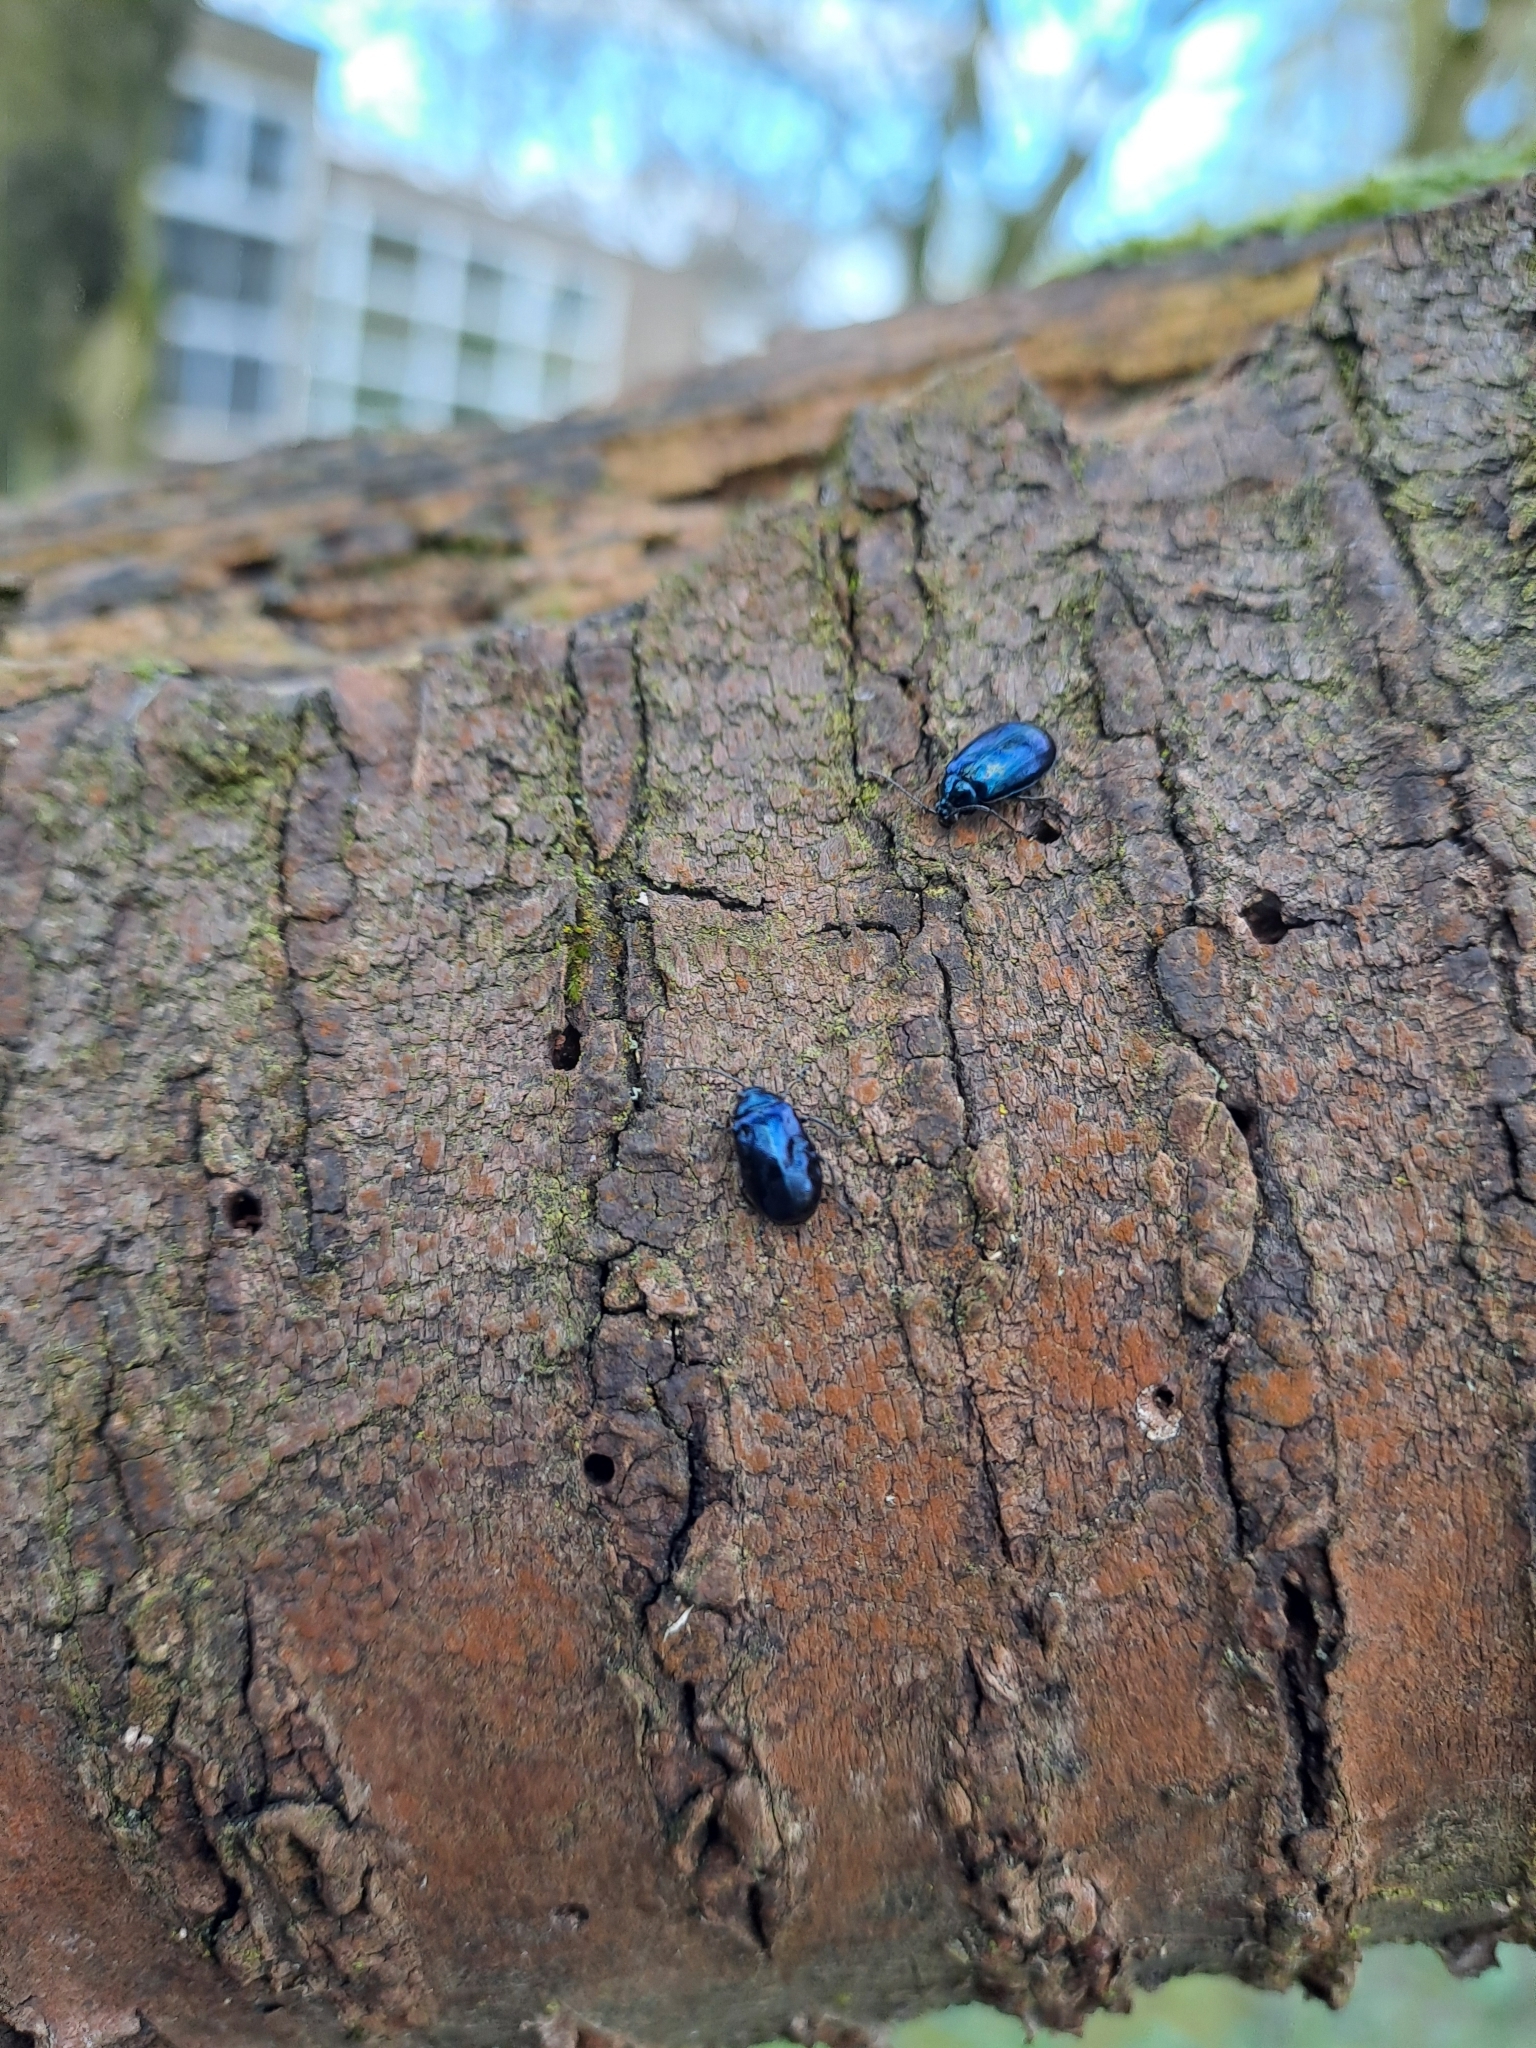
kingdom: Animalia
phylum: Arthropoda
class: Insecta
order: Coleoptera
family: Chrysomelidae
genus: Agelastica
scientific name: Agelastica alni
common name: Alder leaf beetle
